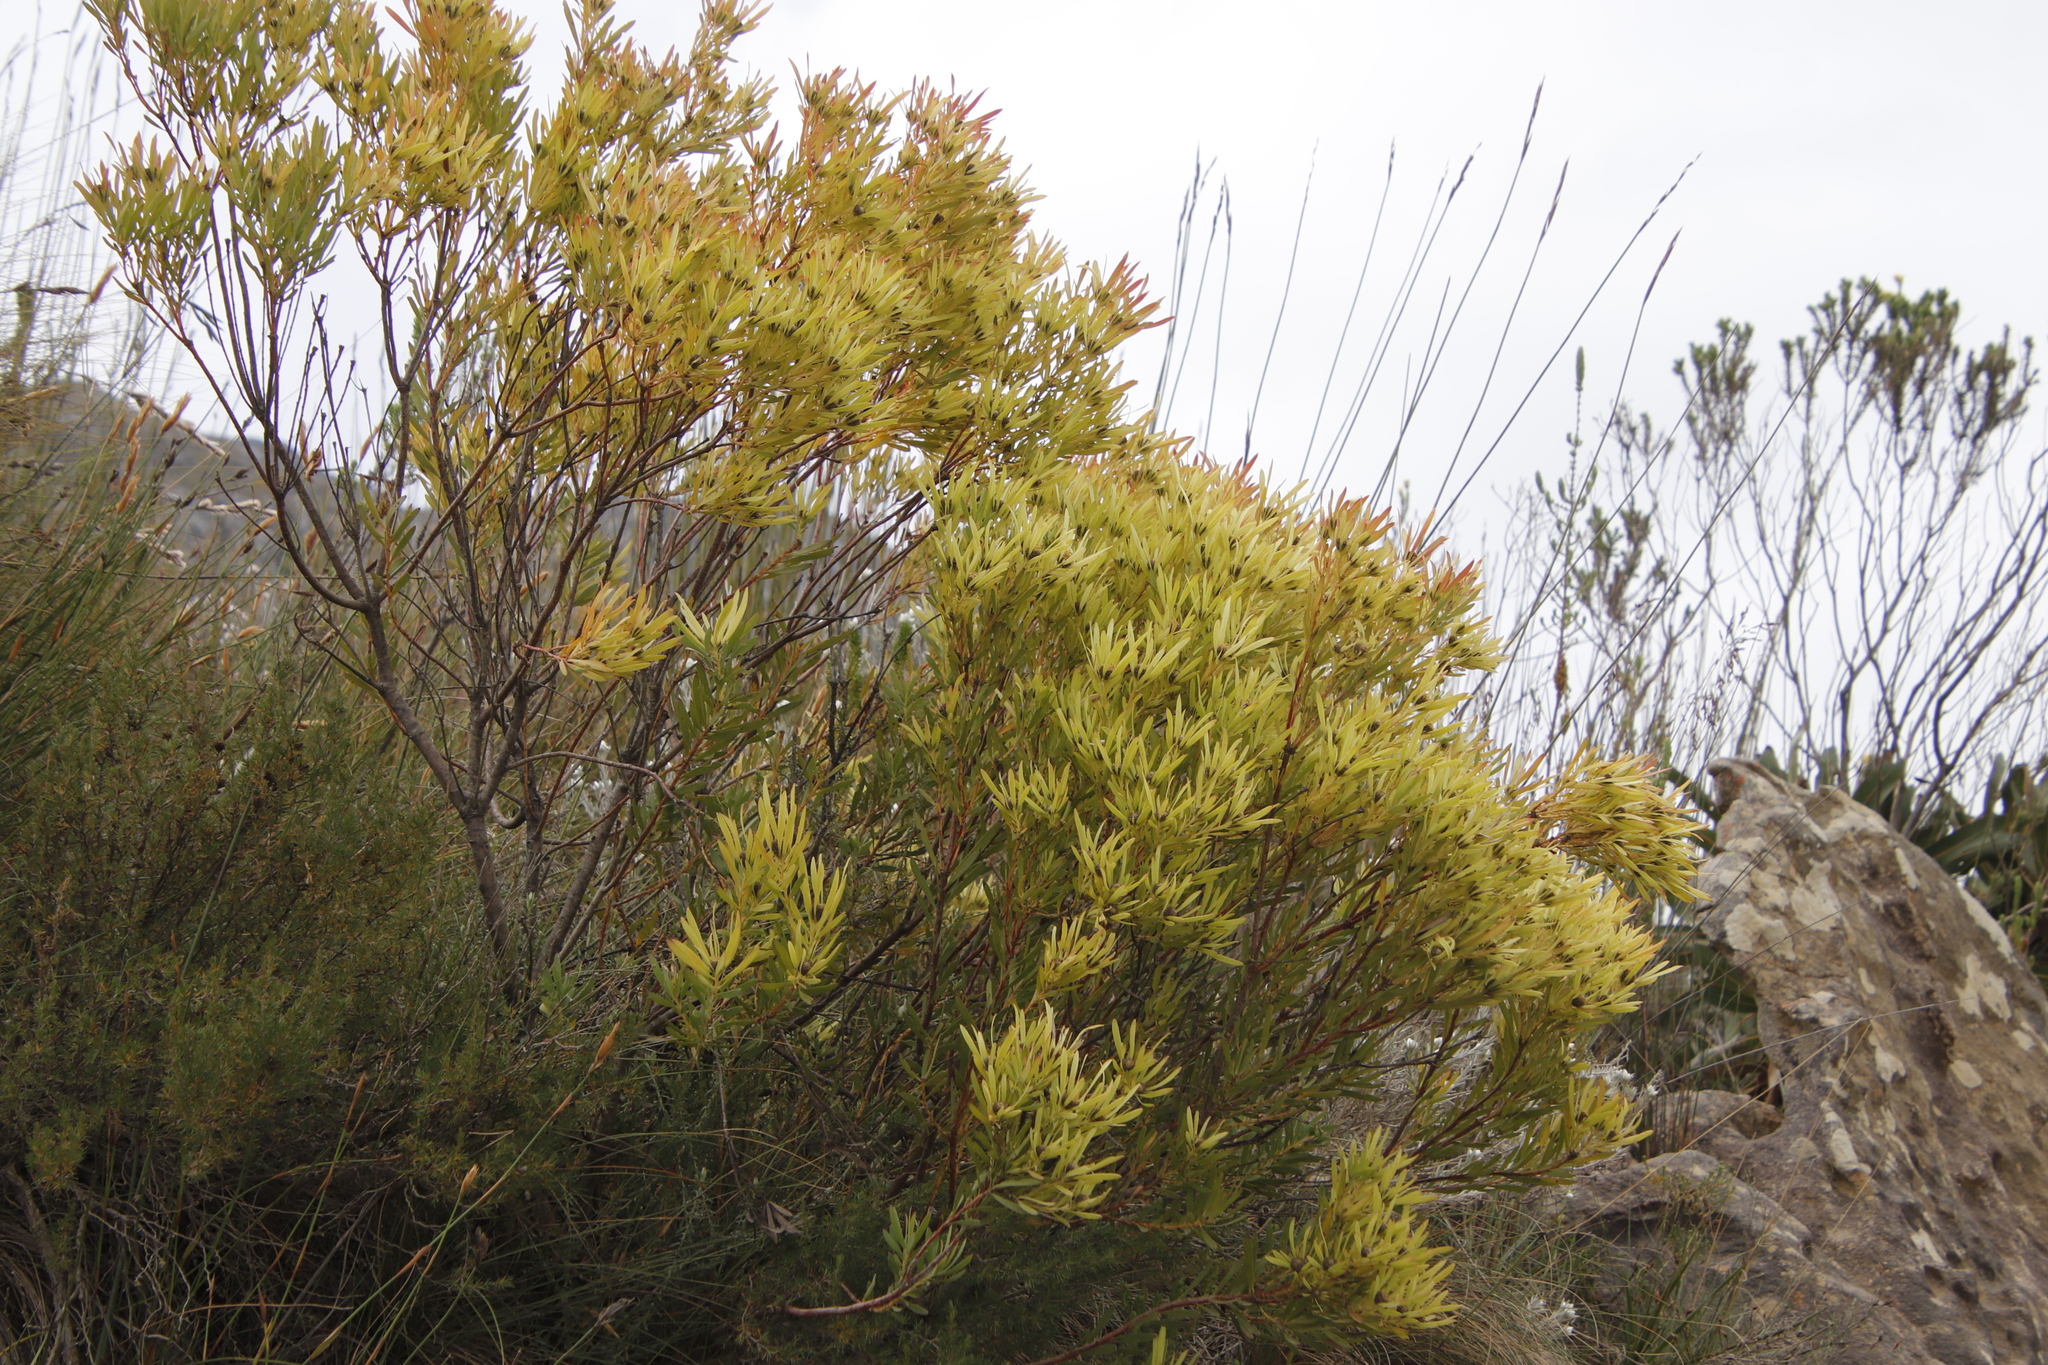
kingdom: Plantae
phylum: Tracheophyta
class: Magnoliopsida
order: Proteales
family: Proteaceae
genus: Leucadendron
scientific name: Leucadendron eucalyptifolium
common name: Gum-leaved conebush
